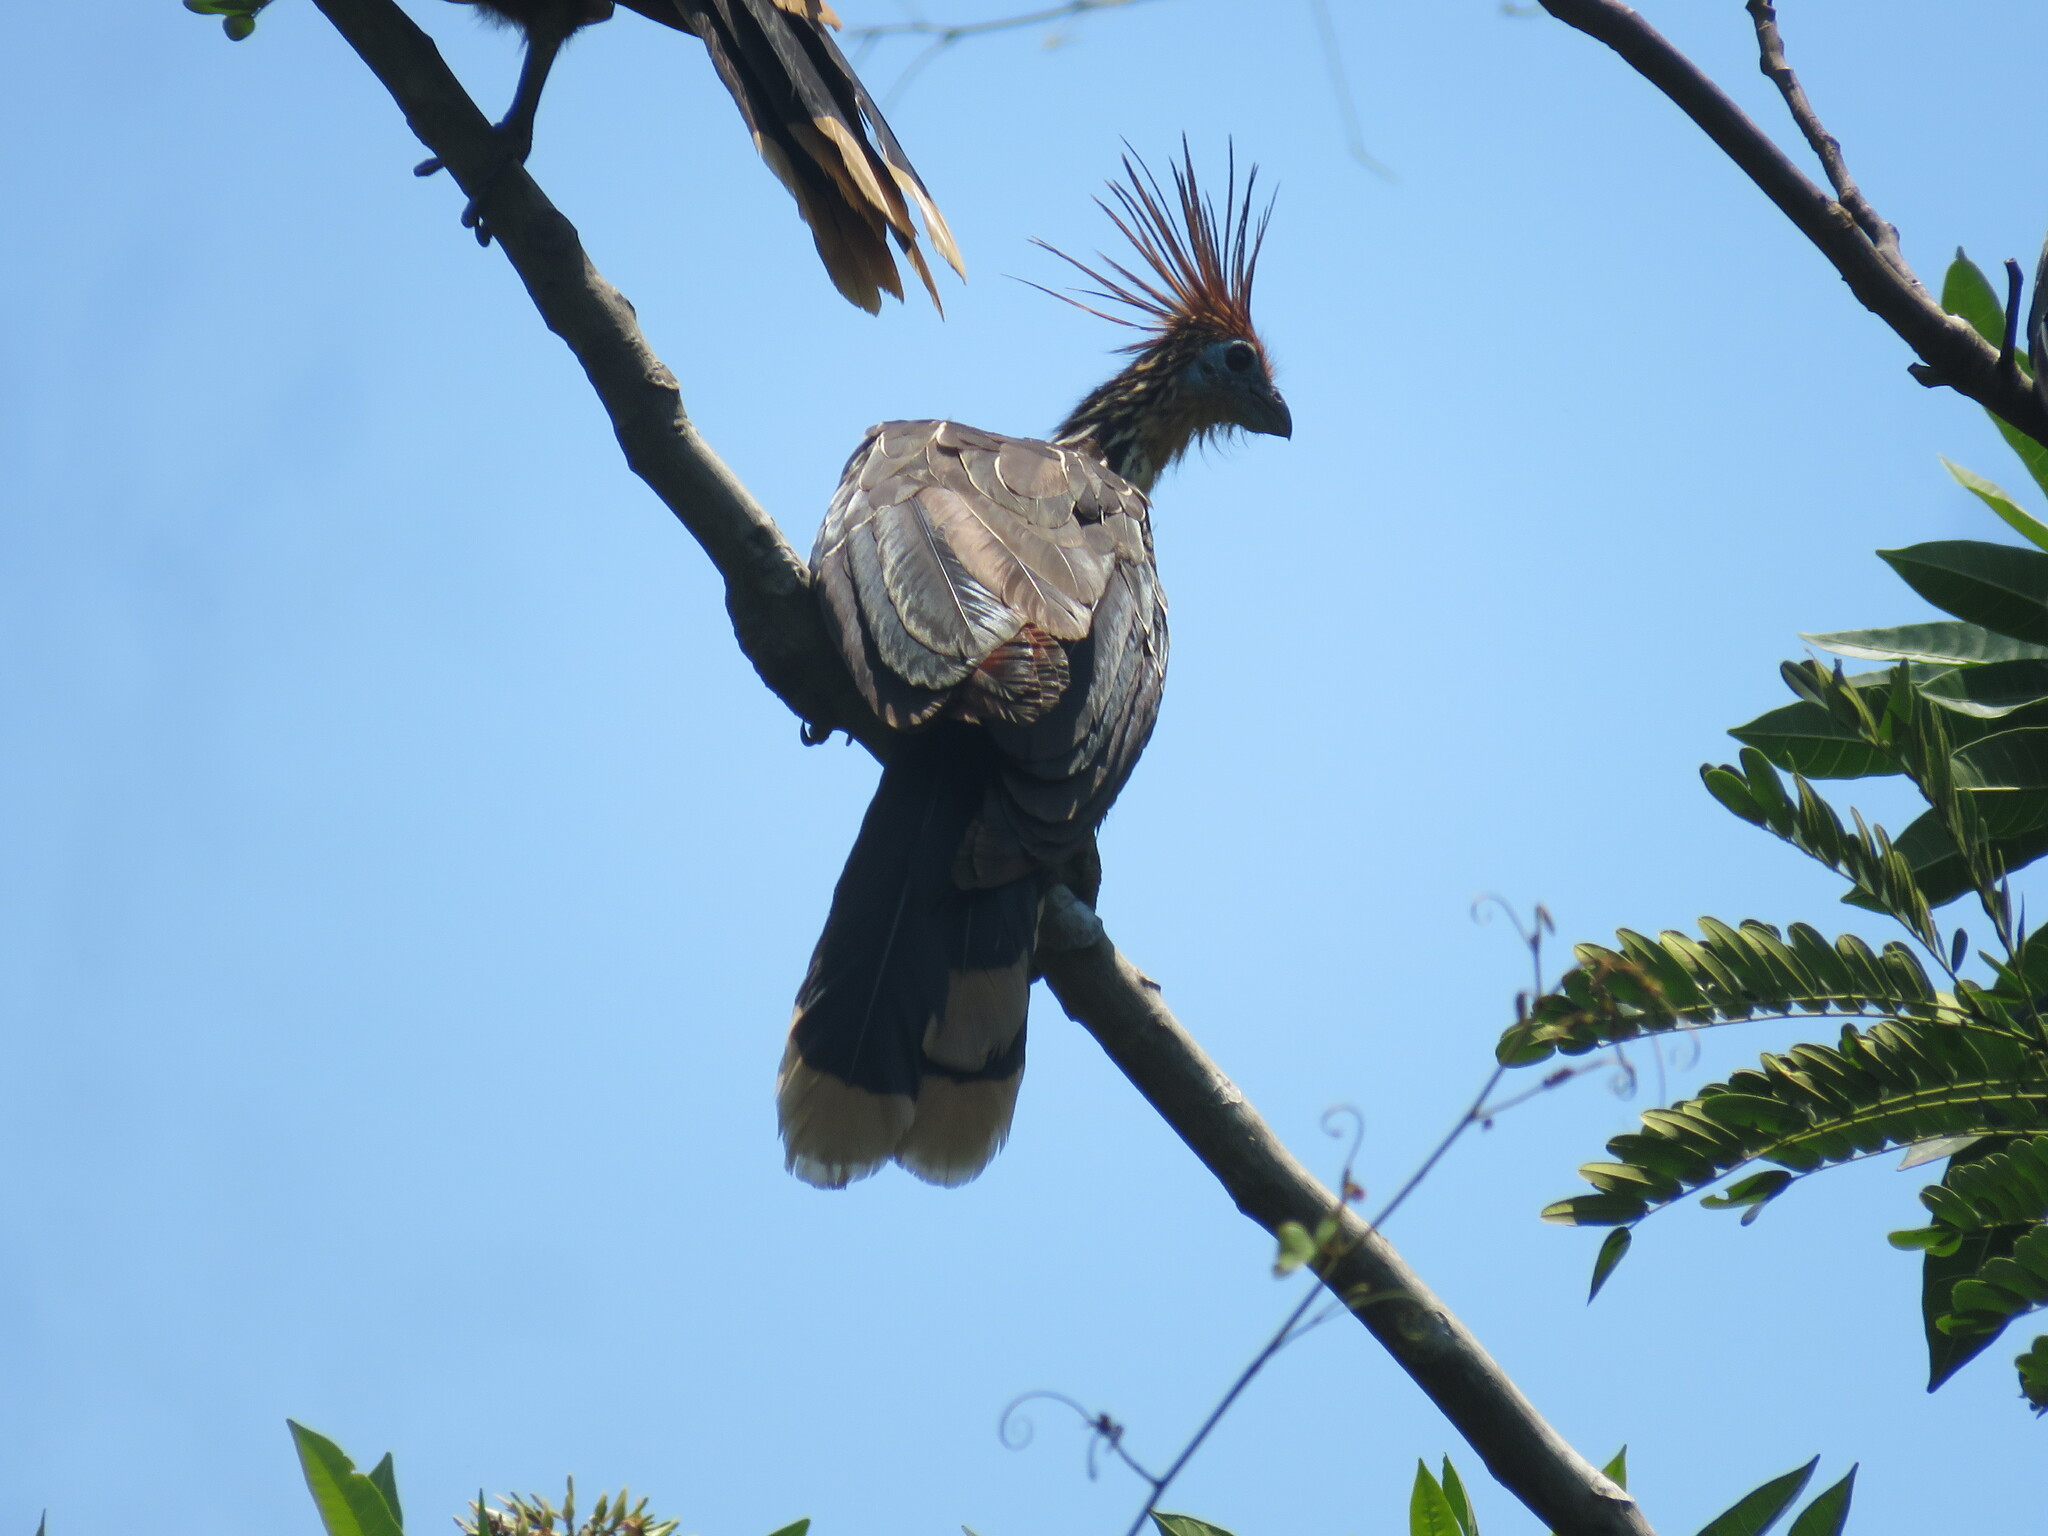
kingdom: Animalia
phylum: Chordata
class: Aves
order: Opisthocomiformes
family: Opisthocomidae
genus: Opisthocomus
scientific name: Opisthocomus hoazin
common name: Hoatzin
